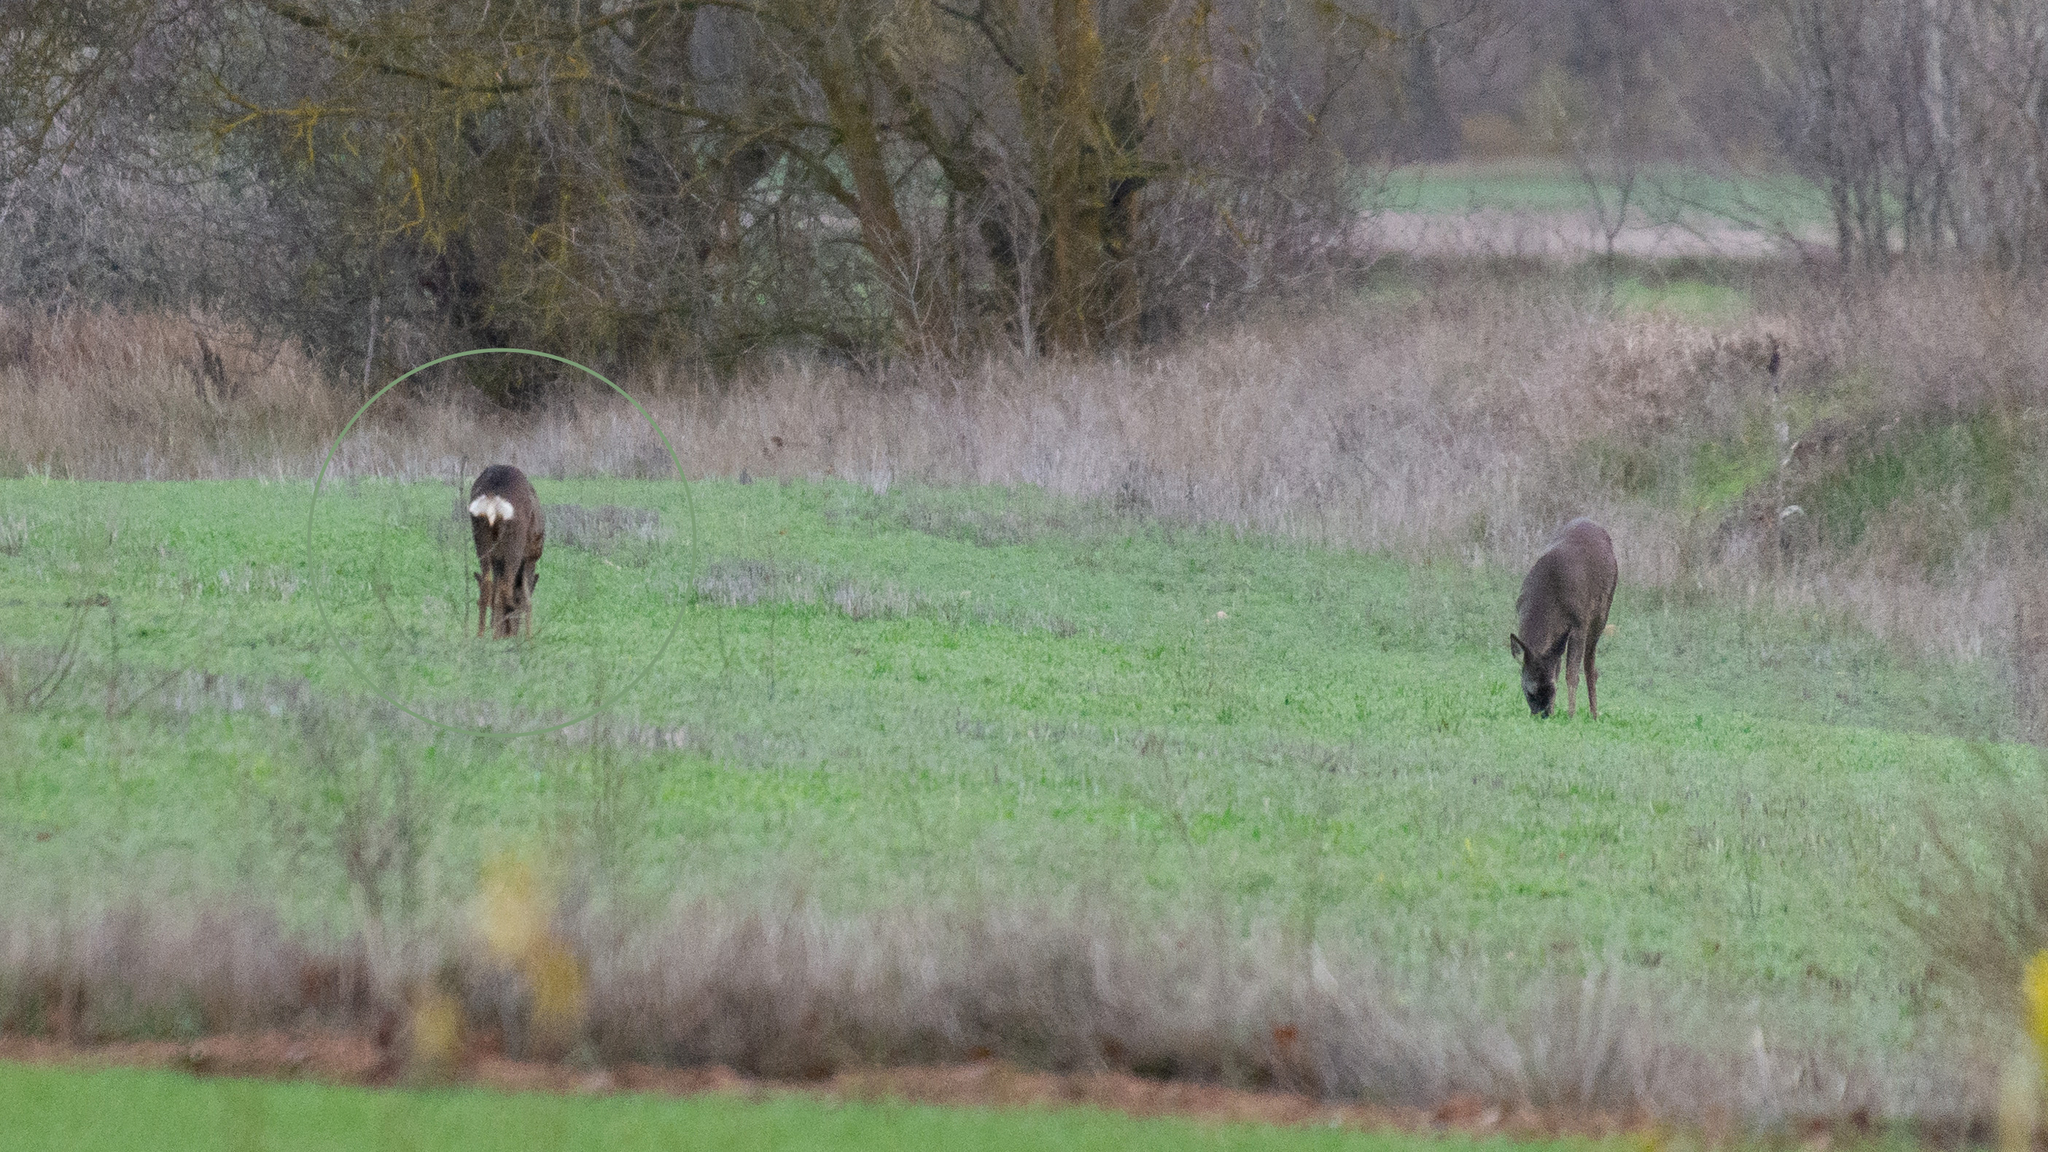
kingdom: Animalia
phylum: Chordata
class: Mammalia
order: Artiodactyla
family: Cervidae
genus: Capreolus
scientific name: Capreolus capreolus
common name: Western roe deer
